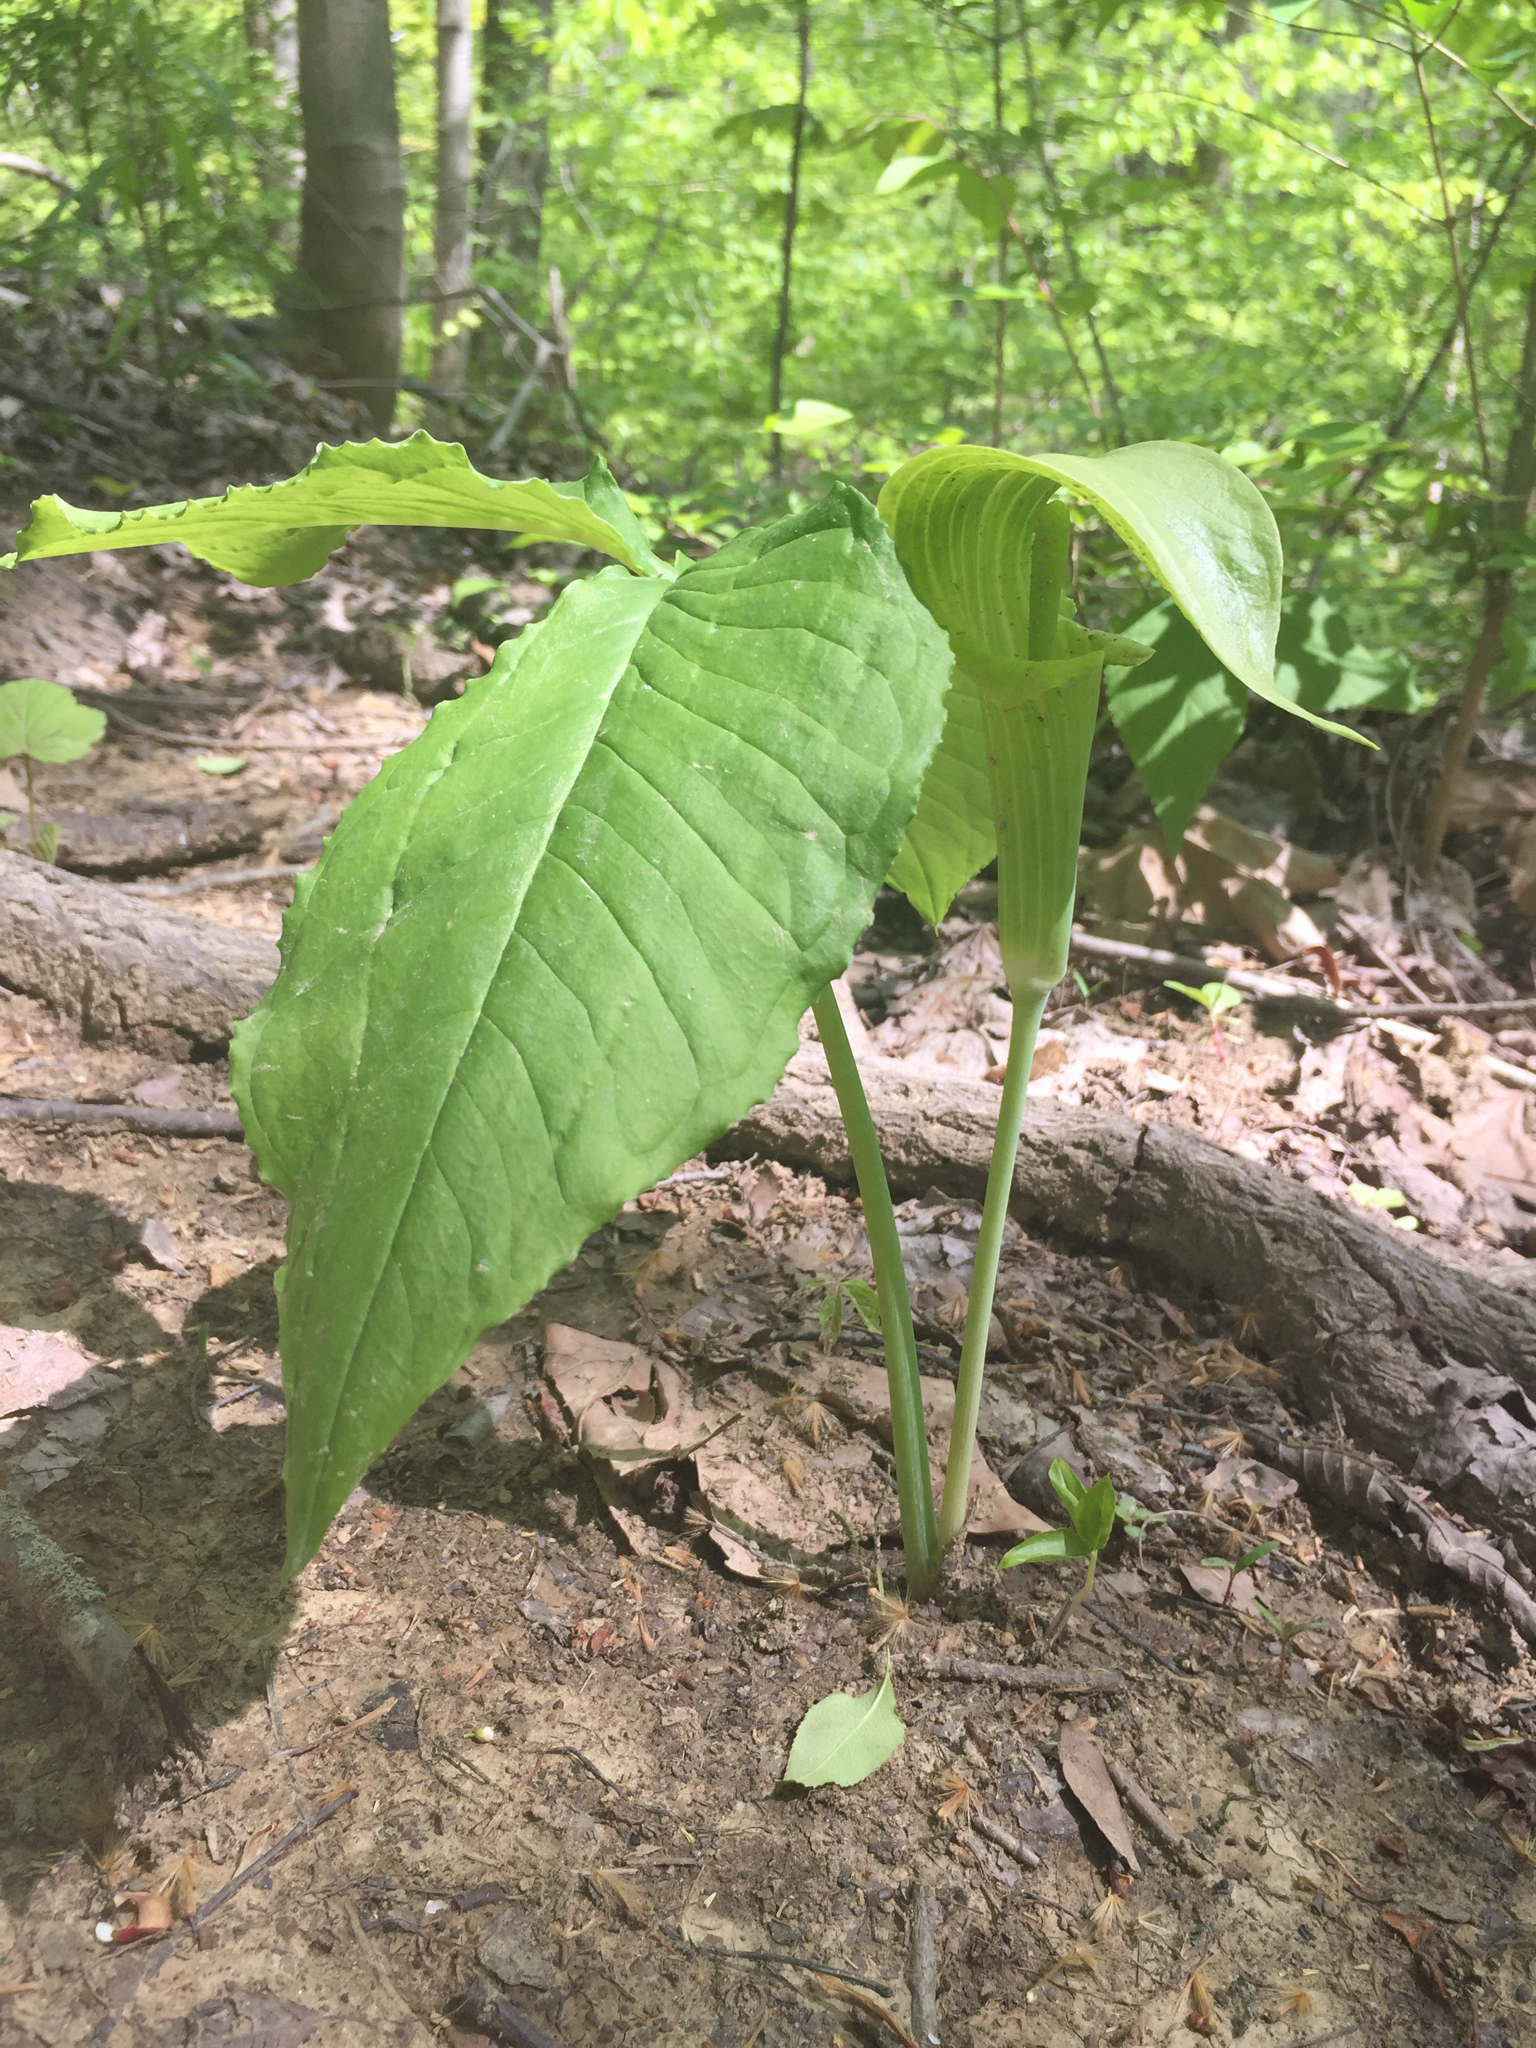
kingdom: Plantae
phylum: Tracheophyta
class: Liliopsida
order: Alismatales
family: Araceae
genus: Arisaema
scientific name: Arisaema triphyllum
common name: Jack-in-the-pulpit
